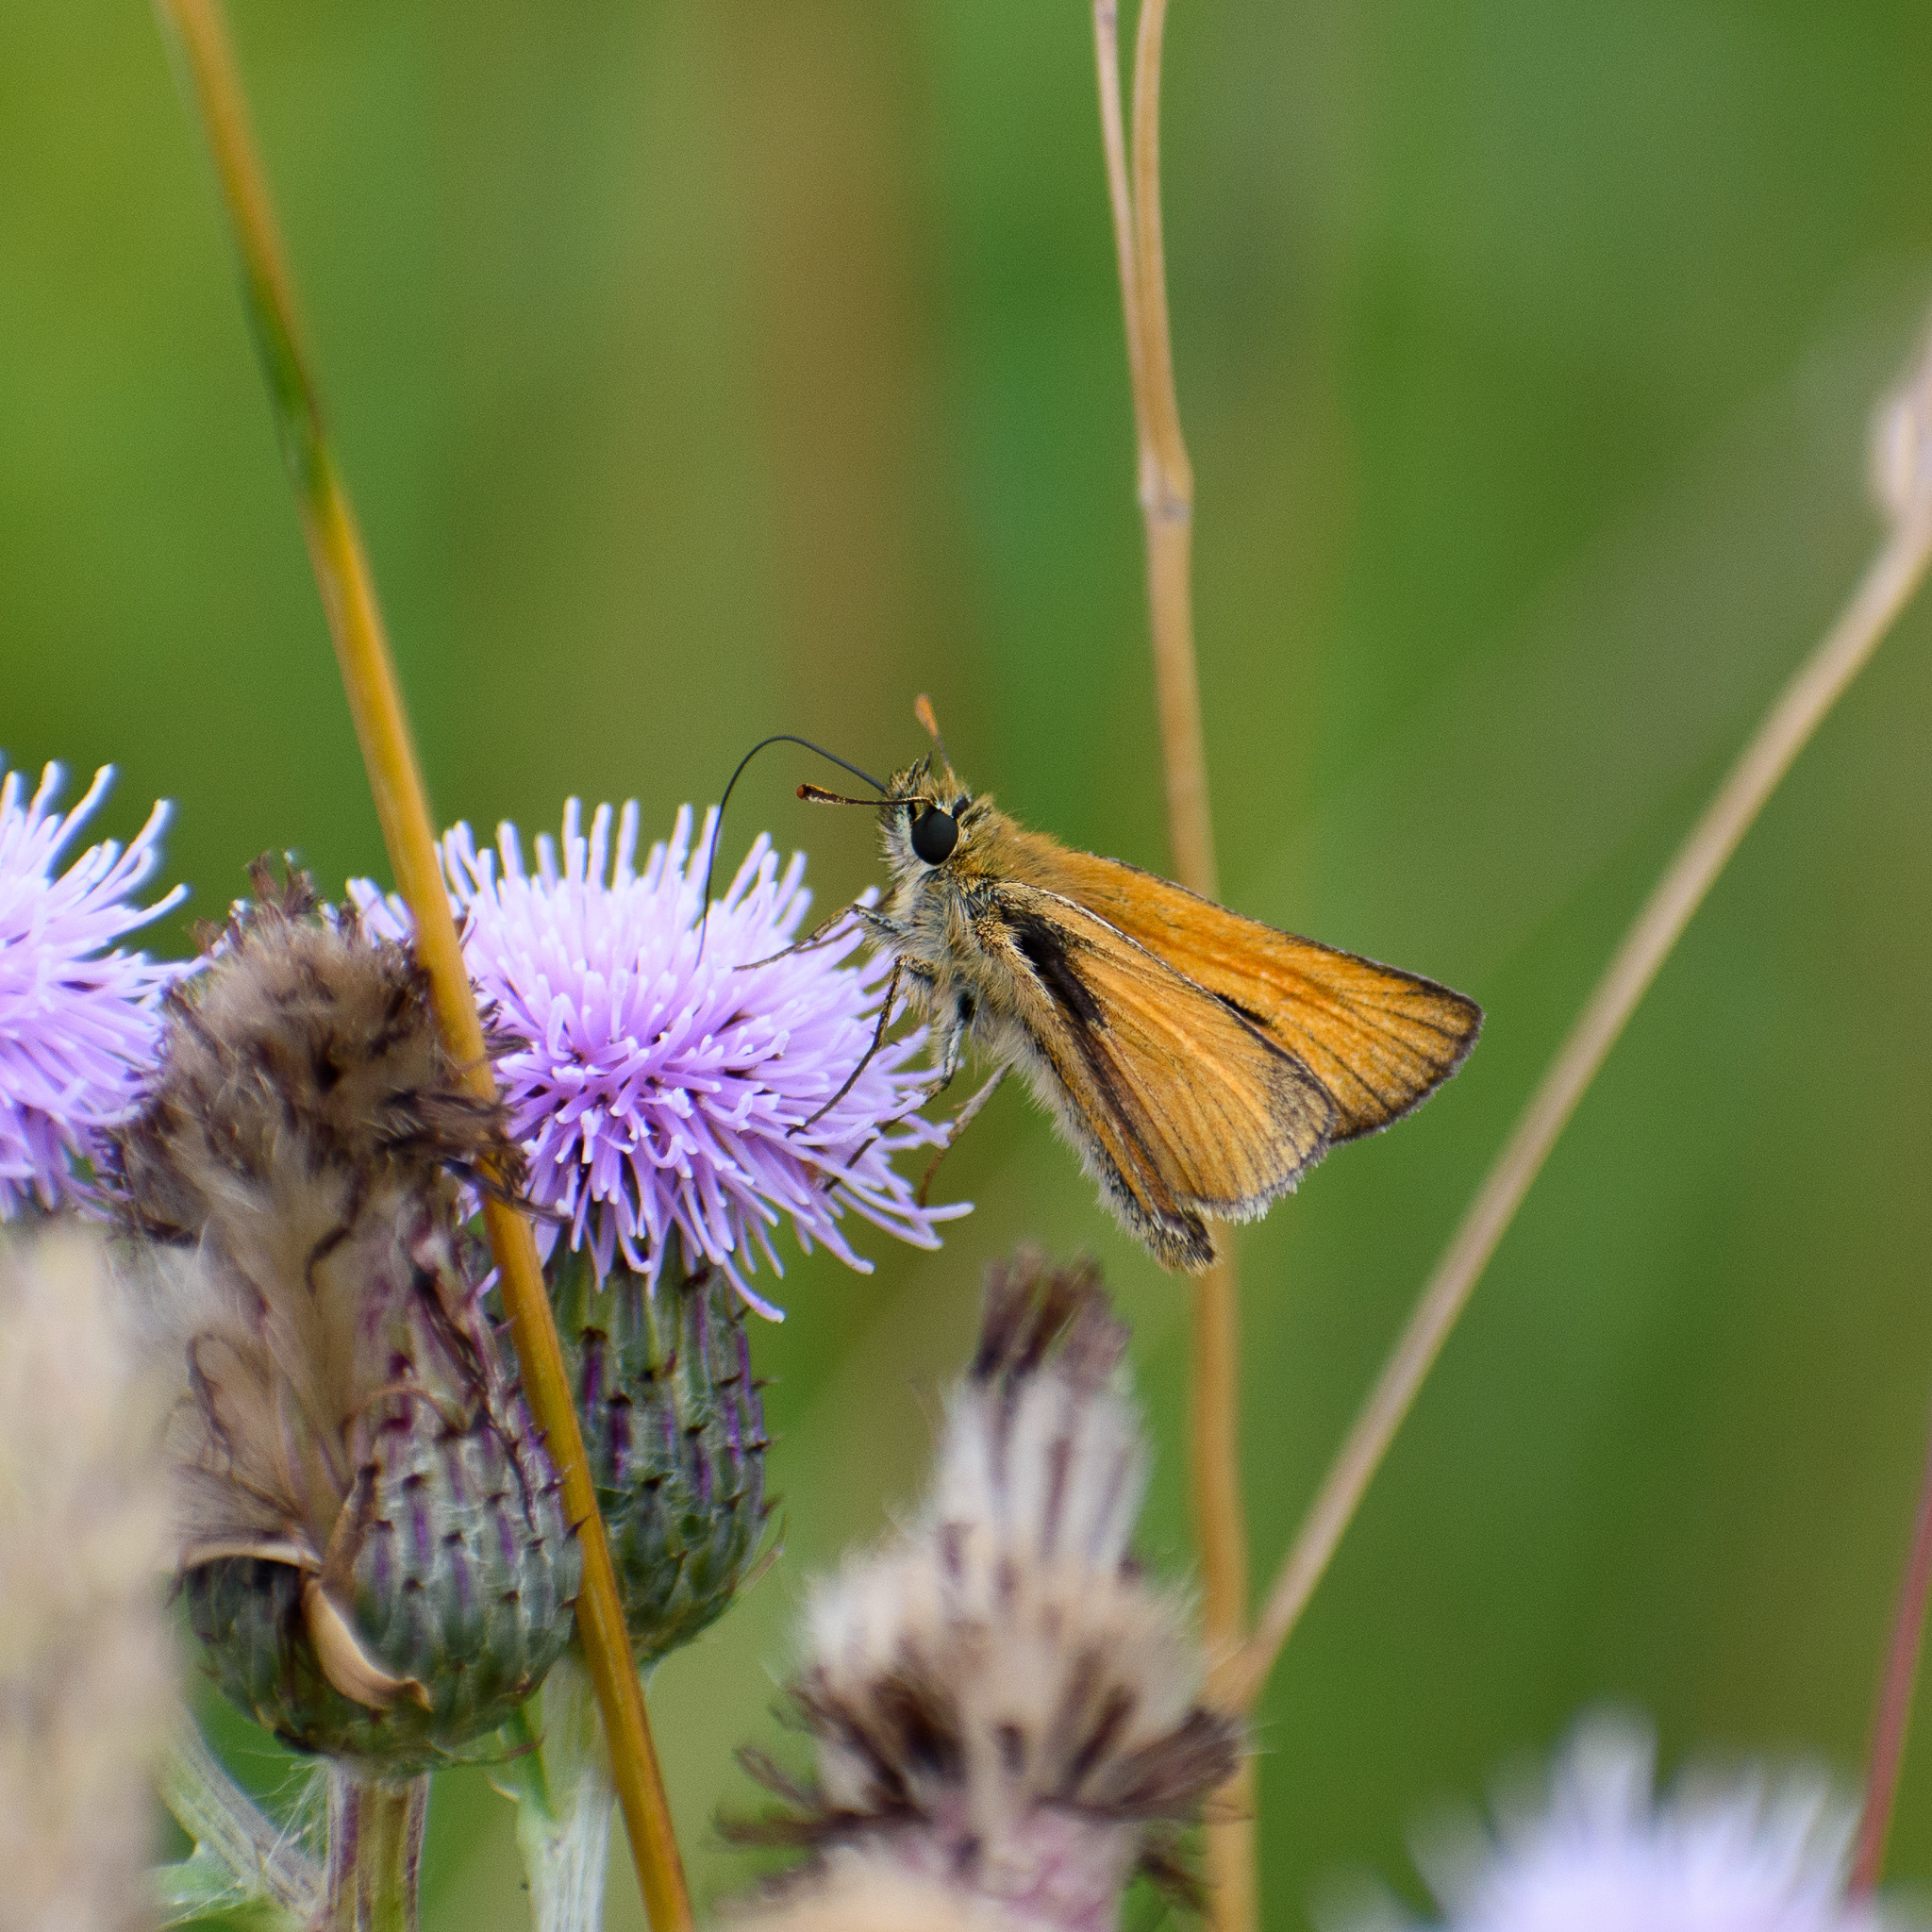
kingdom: Animalia
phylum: Arthropoda
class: Insecta
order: Lepidoptera
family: Hesperiidae
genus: Thymelicus
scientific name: Thymelicus sylvestris
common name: Small skipper
